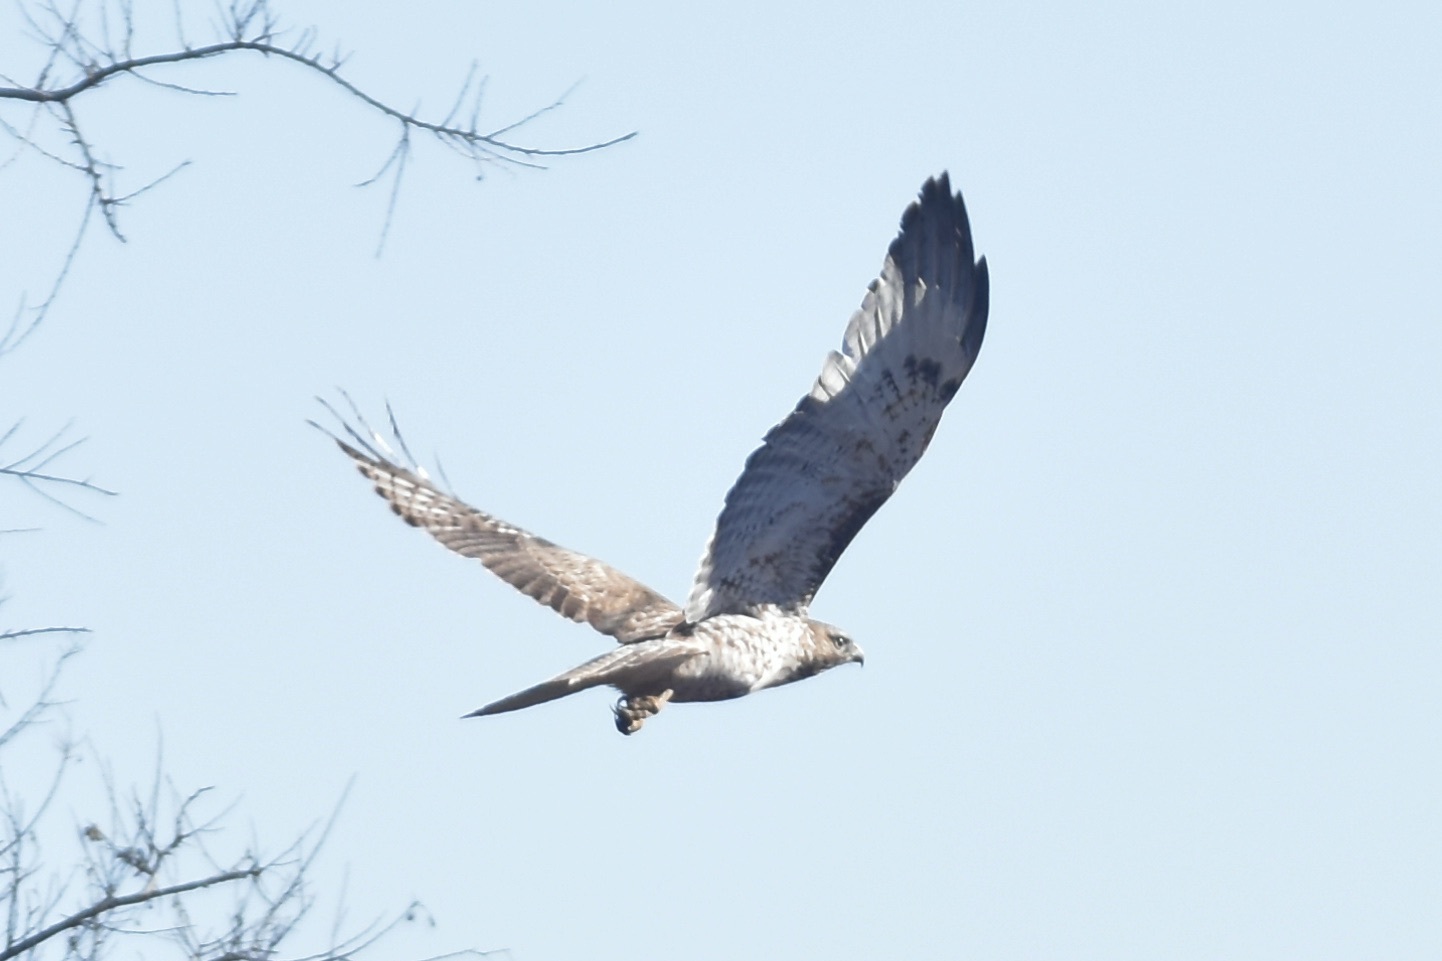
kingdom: Animalia
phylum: Chordata
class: Aves
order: Accipitriformes
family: Accipitridae
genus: Buteo
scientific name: Buteo jamaicensis
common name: Red-tailed hawk
